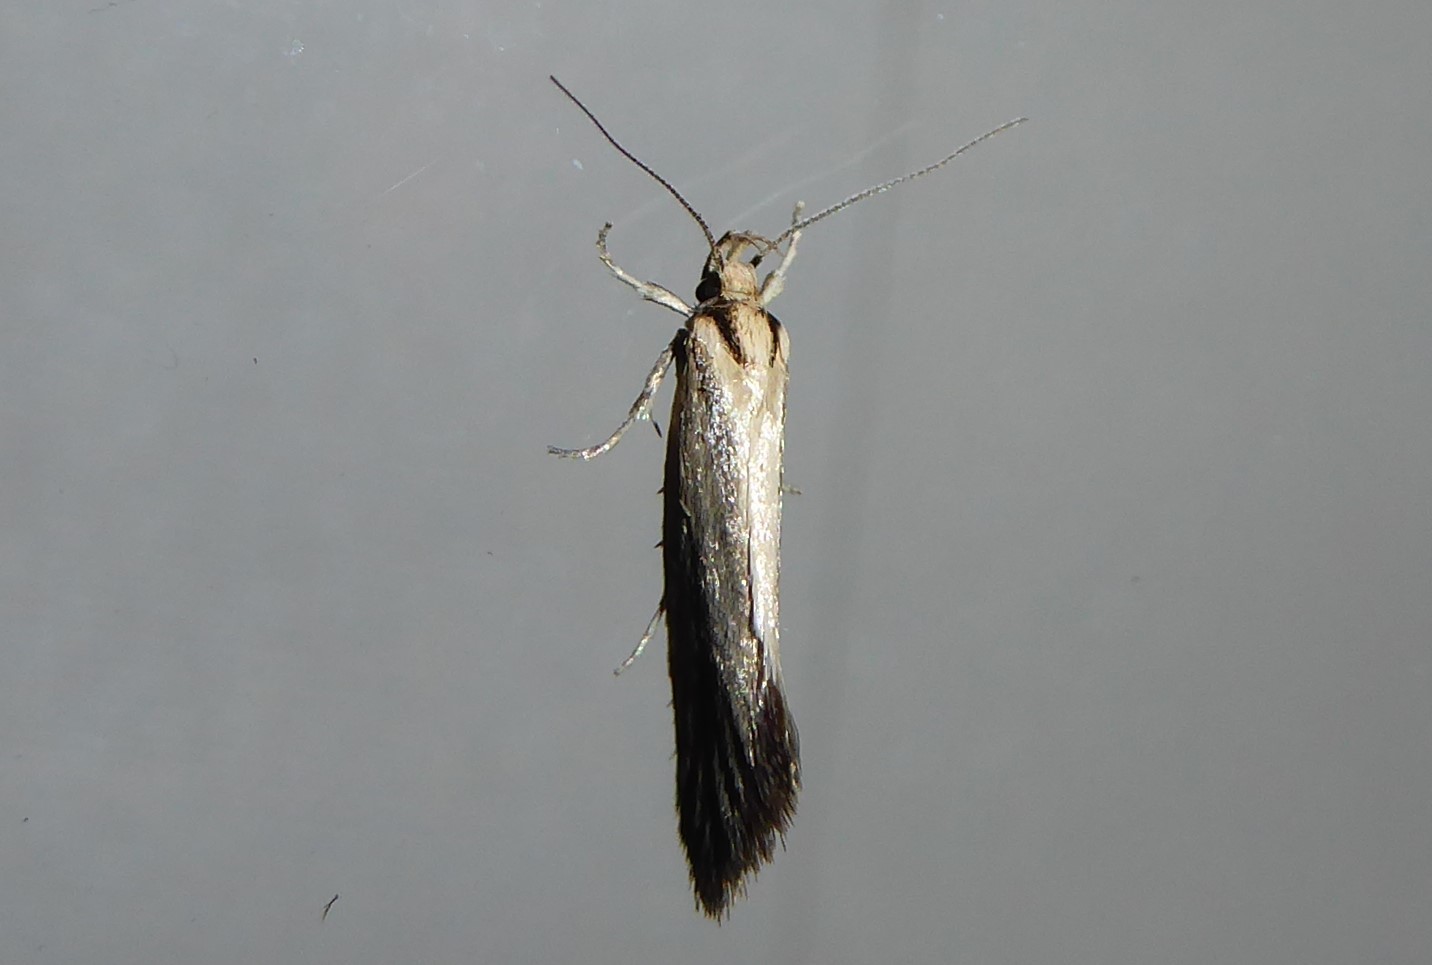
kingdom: Animalia
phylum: Arthropoda
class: Insecta
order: Lepidoptera
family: Oecophoridae
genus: Tingena
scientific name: Tingena chloradelpha
